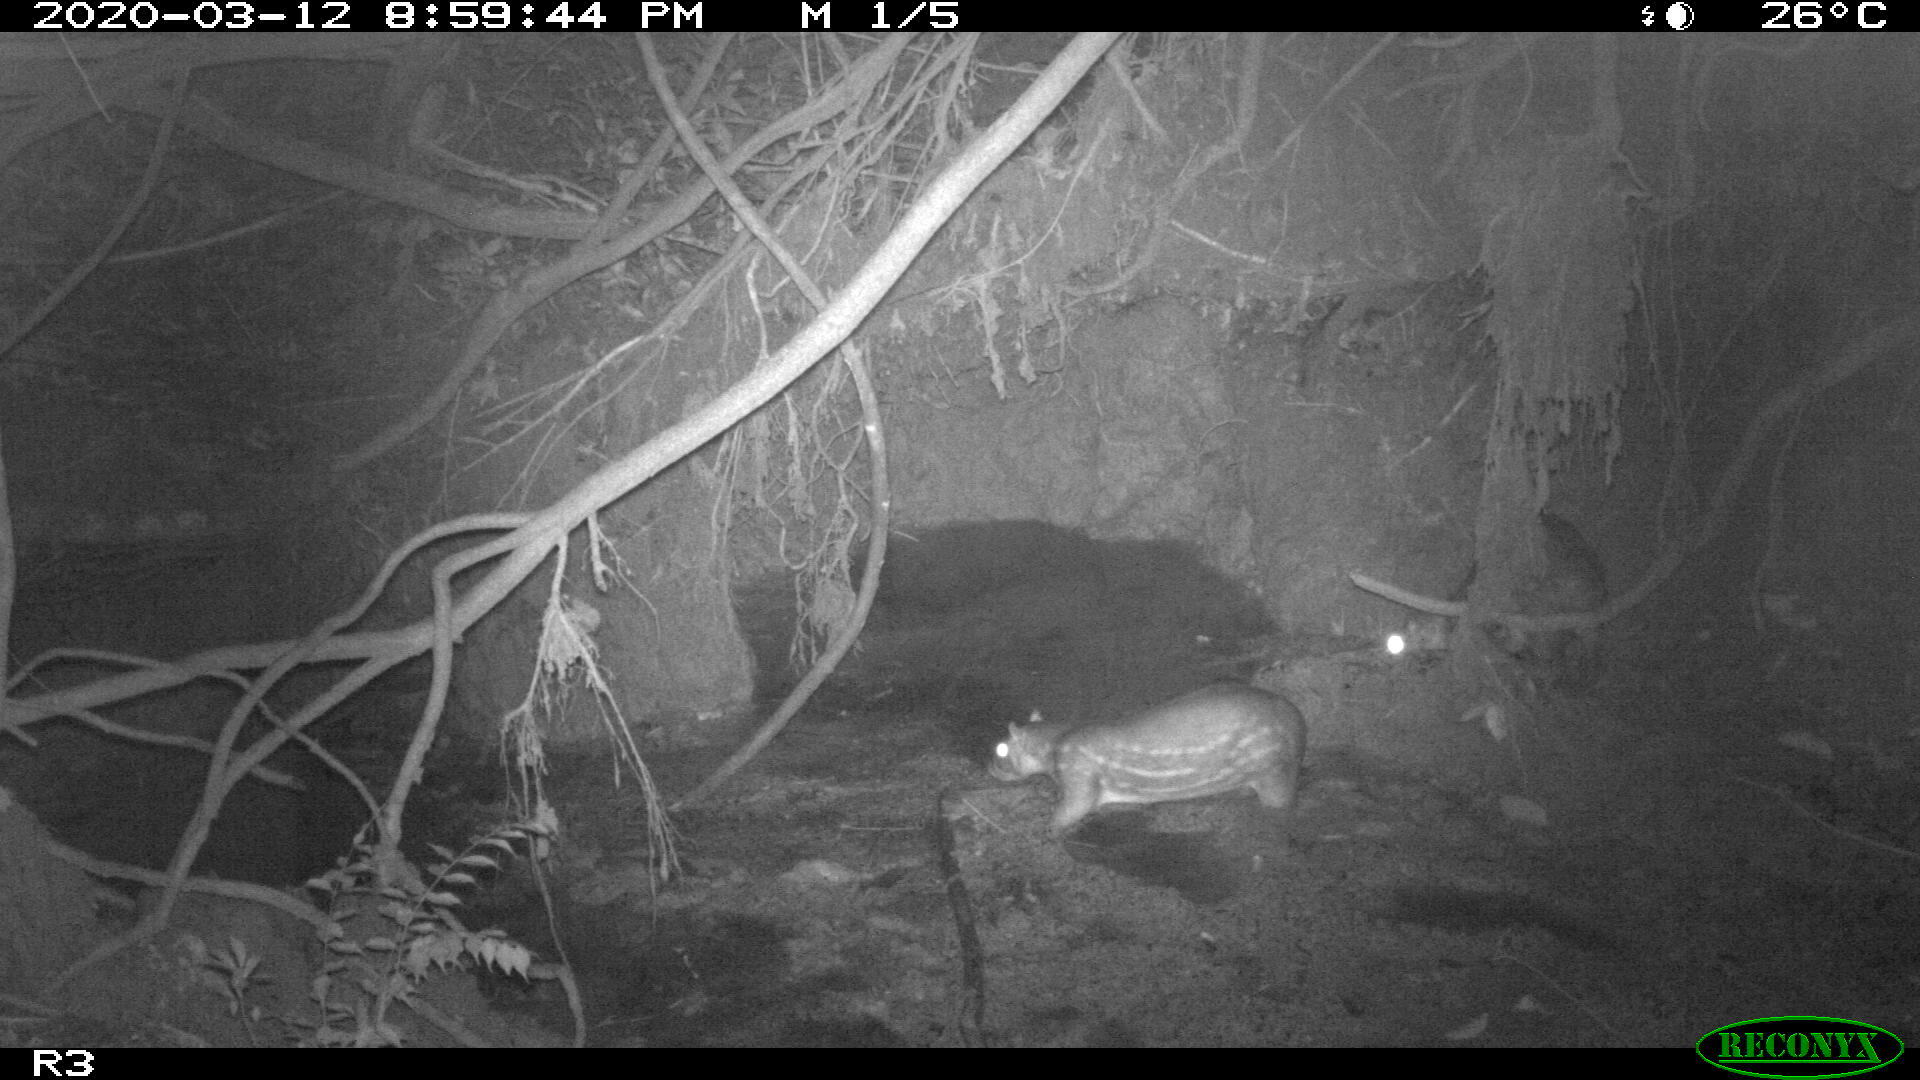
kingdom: Animalia
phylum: Chordata
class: Mammalia
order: Rodentia
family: Cuniculidae
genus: Cuniculus
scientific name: Cuniculus paca
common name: Lowland paca
